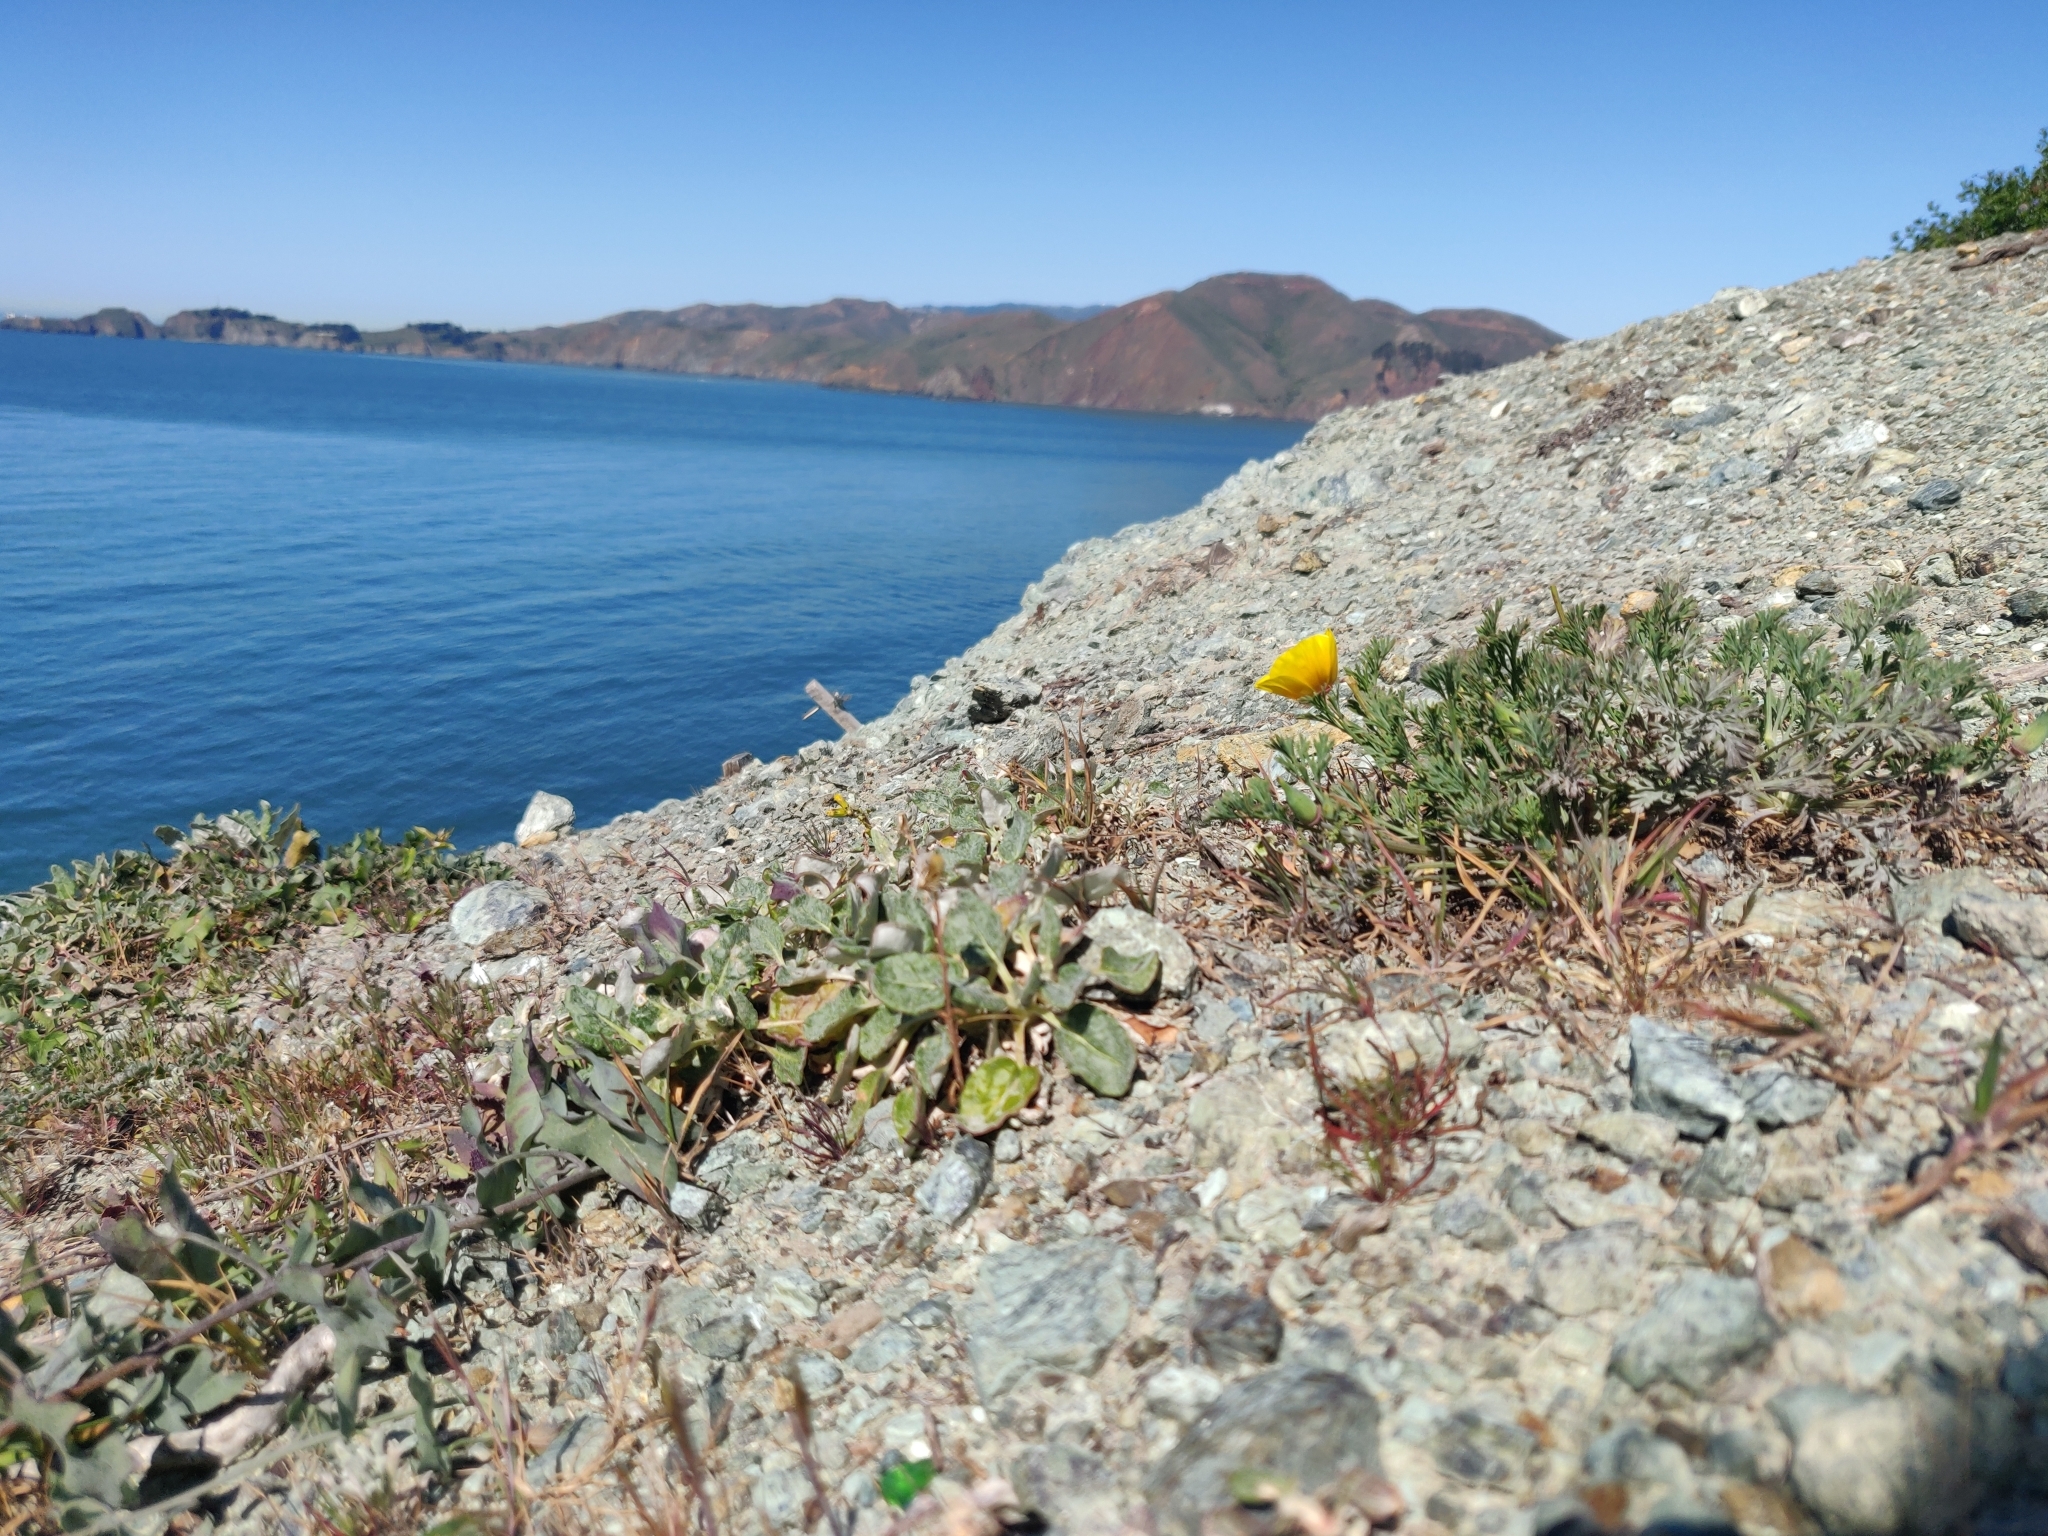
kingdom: Plantae
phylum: Tracheophyta
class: Magnoliopsida
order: Ranunculales
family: Papaveraceae
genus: Eschscholzia
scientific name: Eschscholzia californica
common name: California poppy
